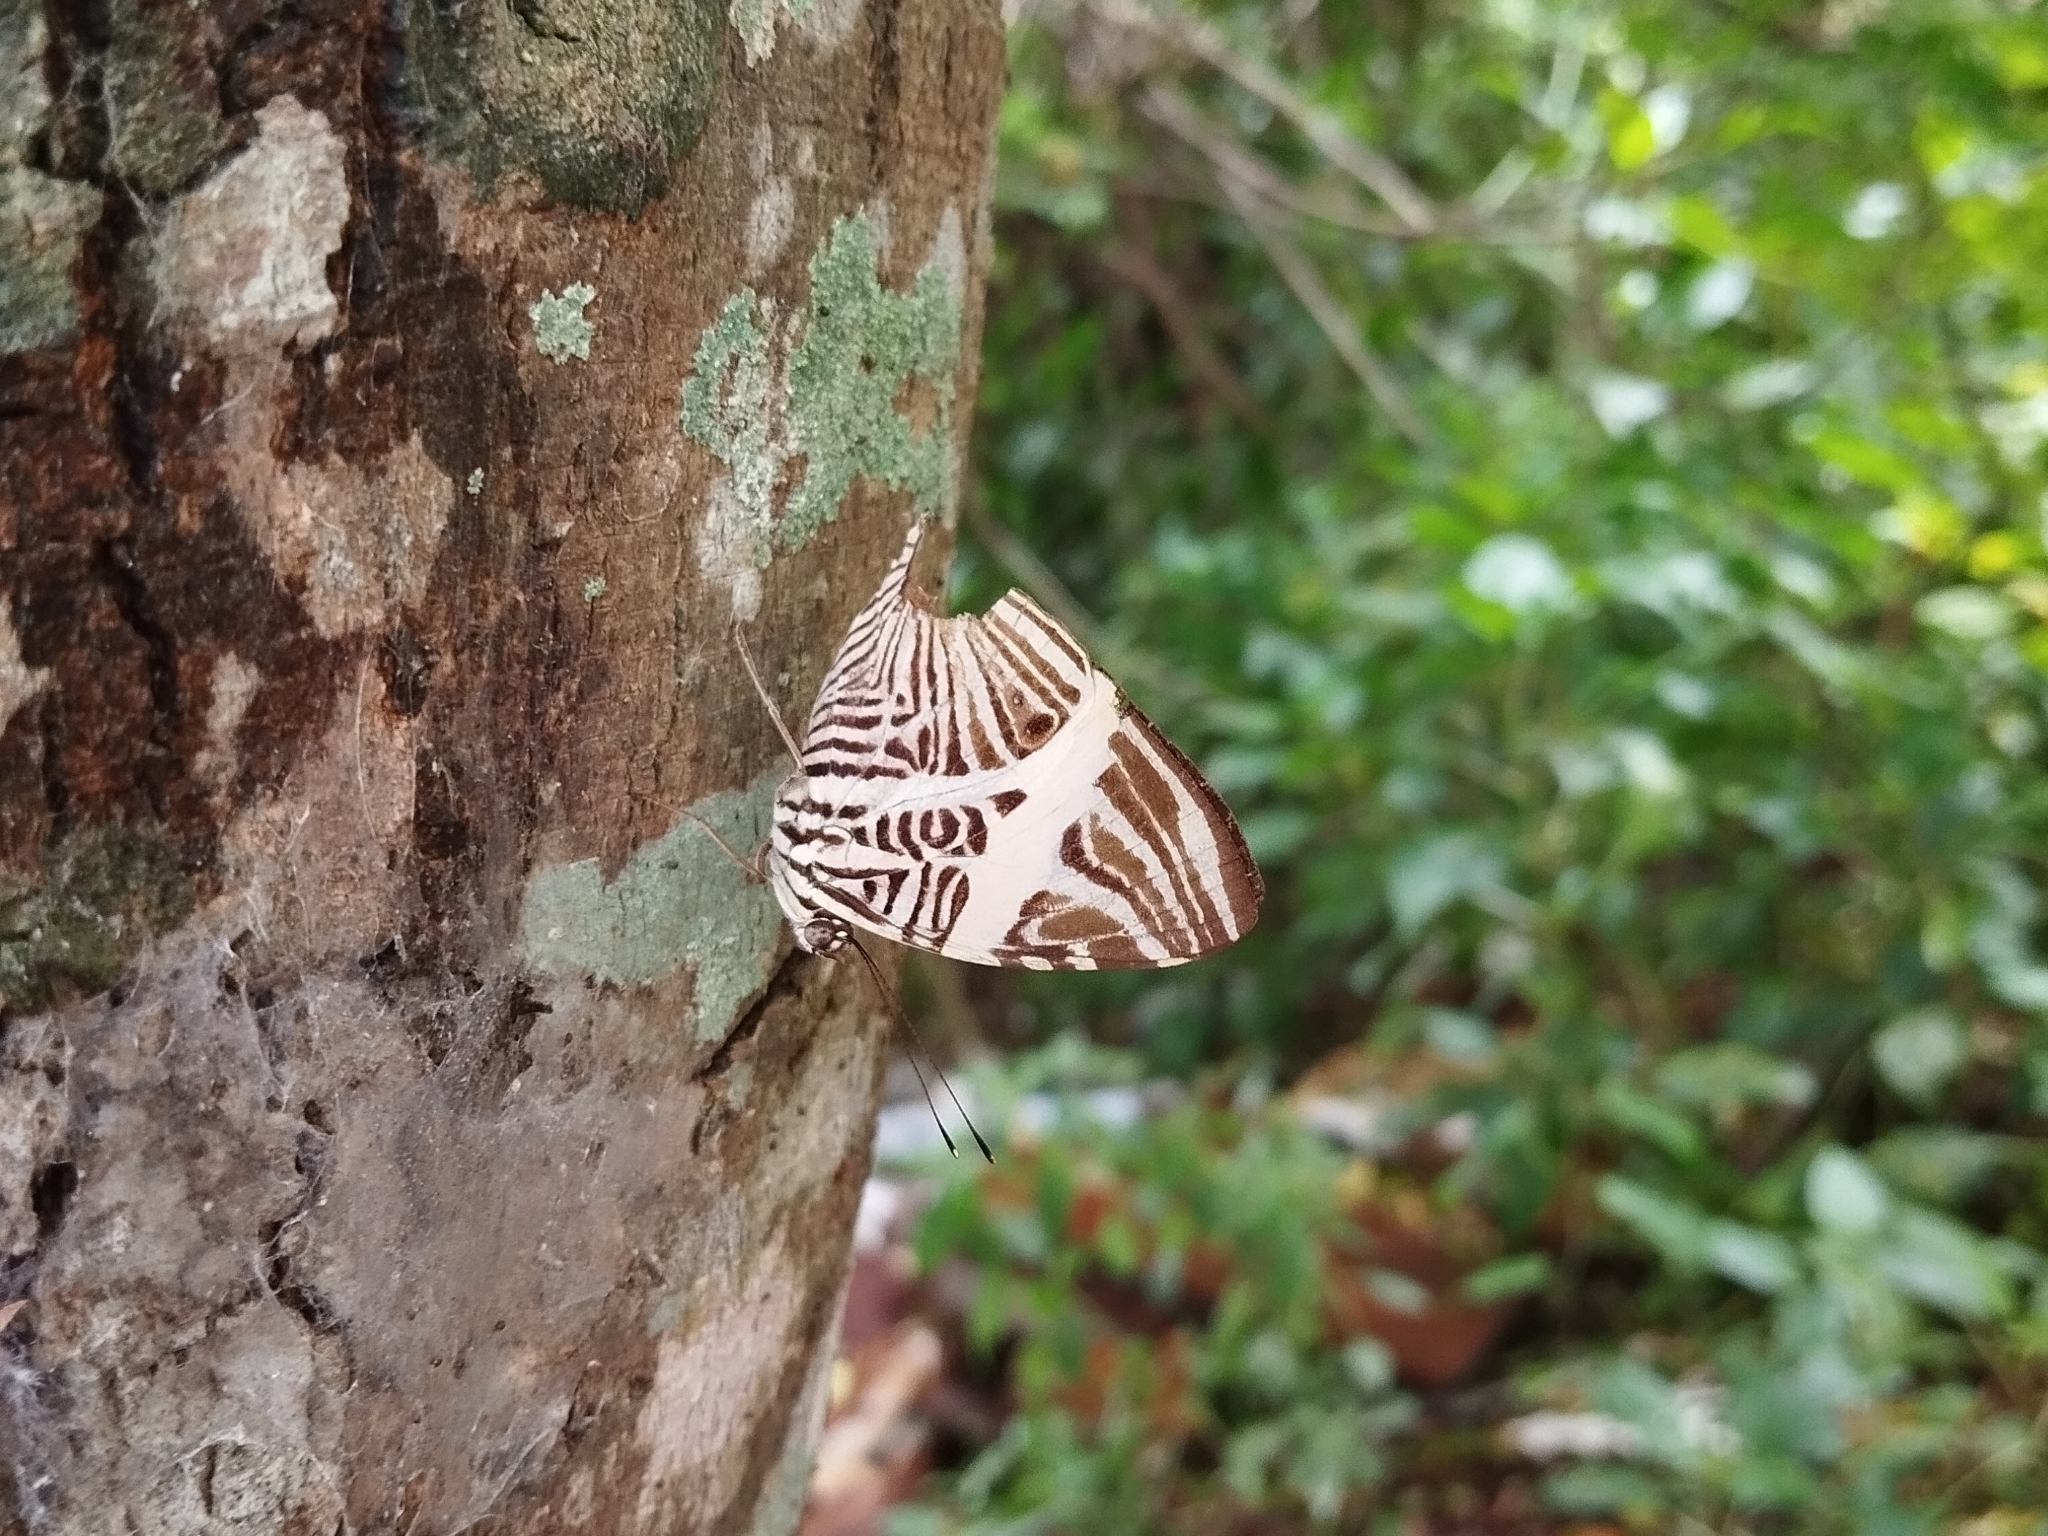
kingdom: Animalia
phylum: Arthropoda
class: Insecta
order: Lepidoptera
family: Nymphalidae
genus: Colobura
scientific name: Colobura dirce
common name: Dirce beauty
